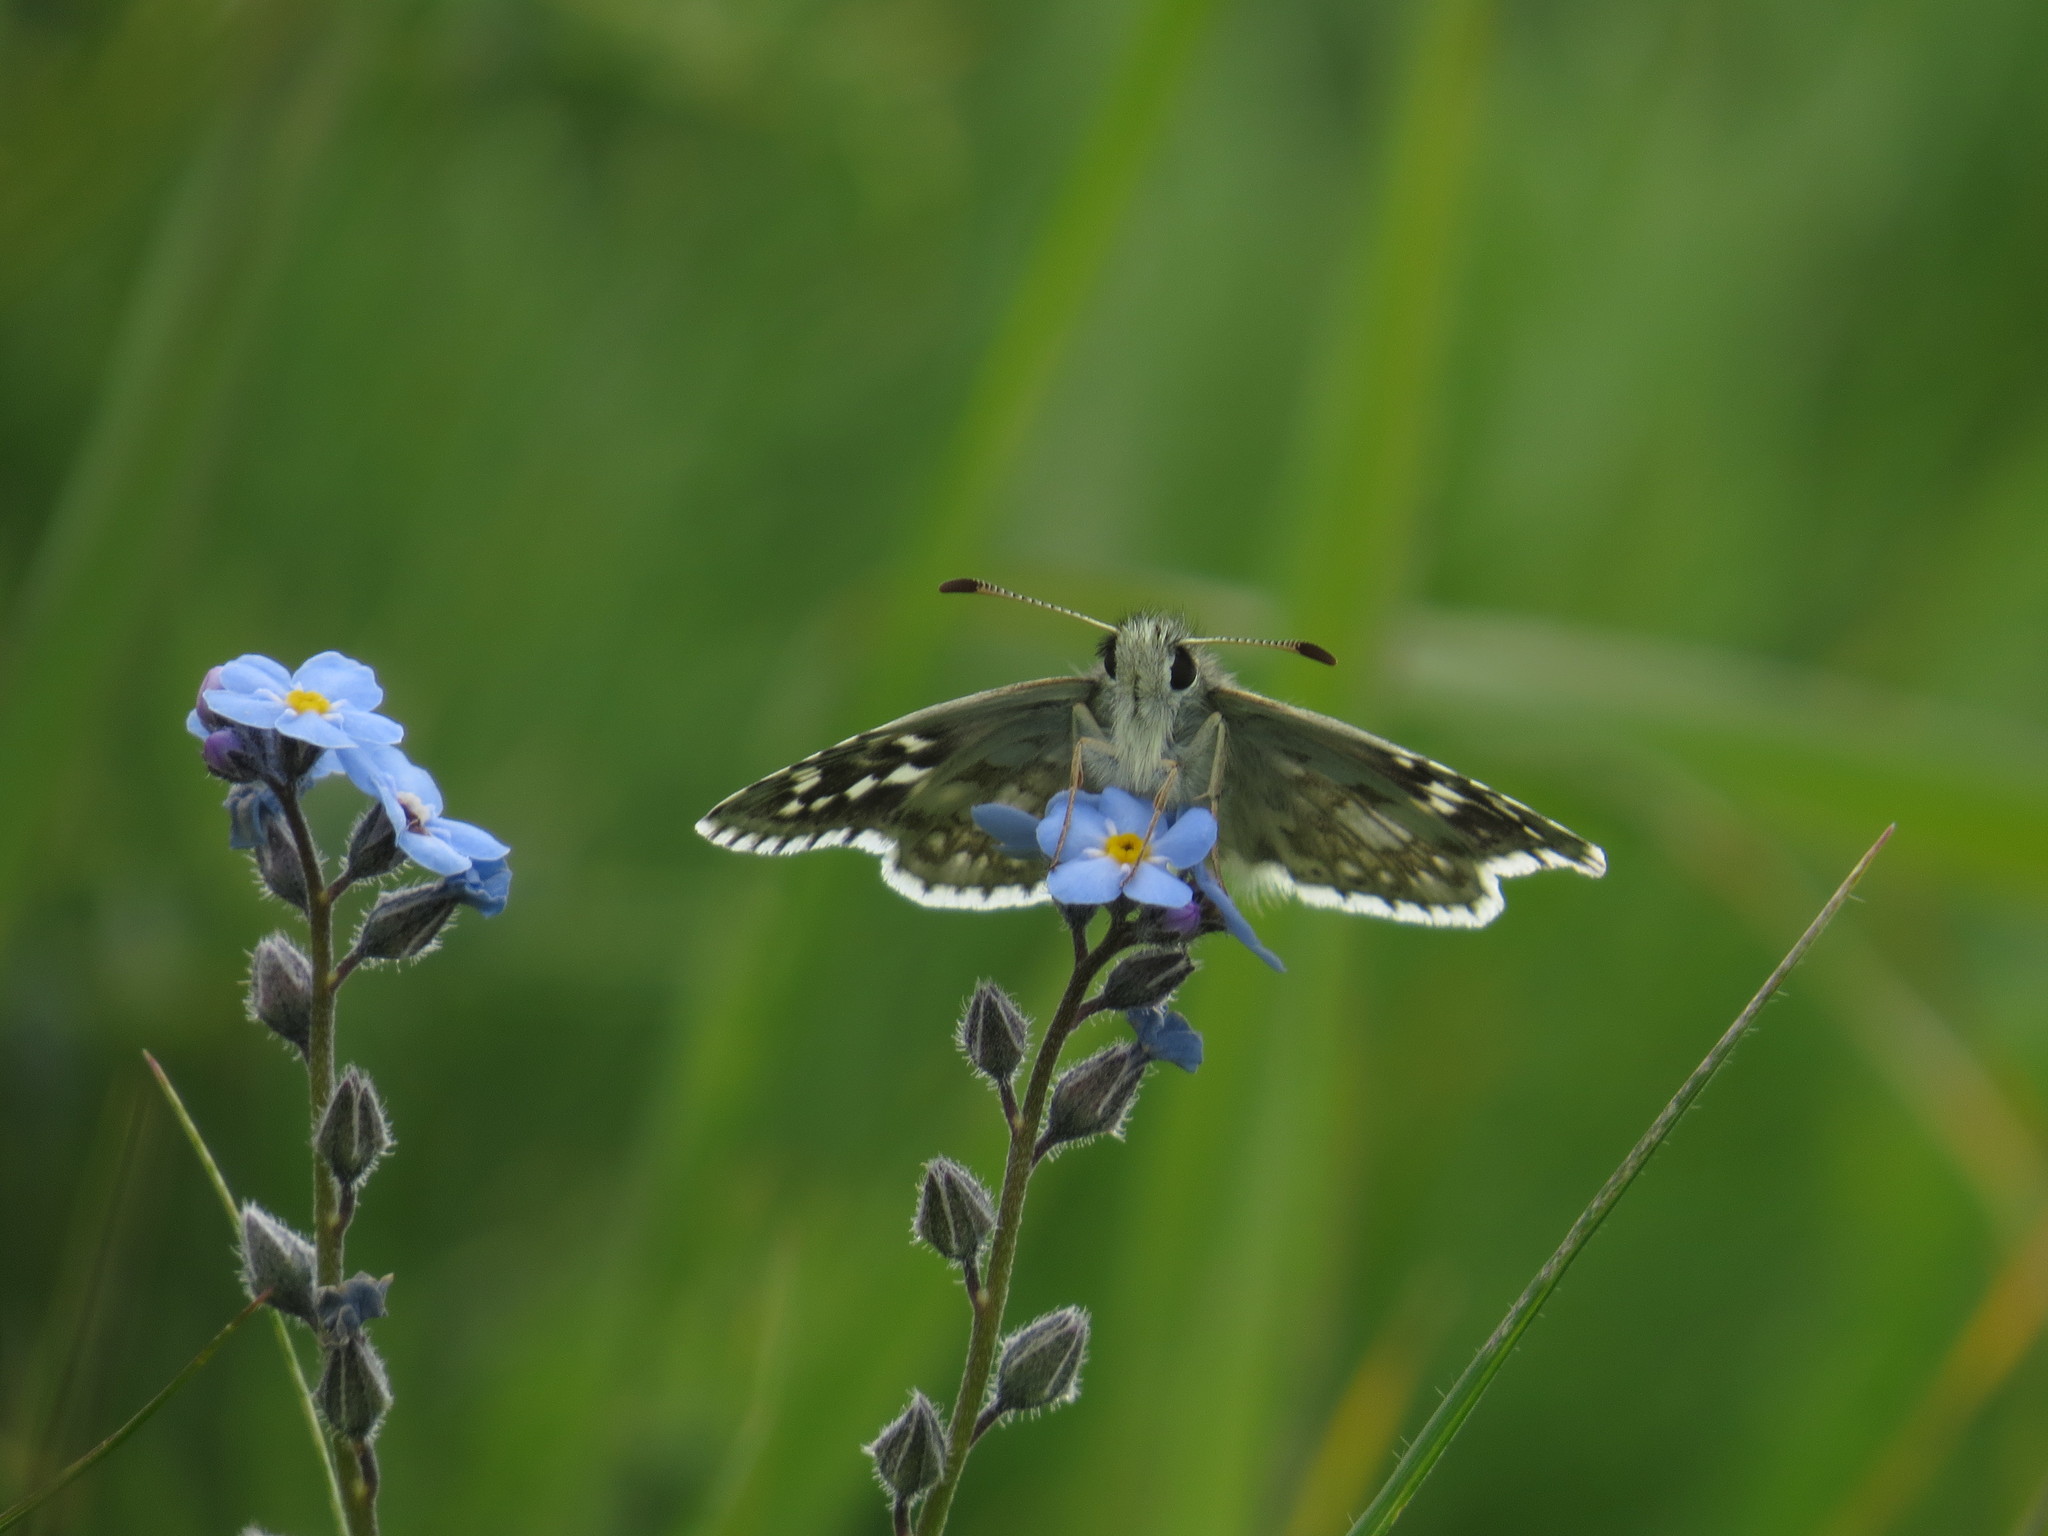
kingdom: Animalia
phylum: Arthropoda
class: Insecta
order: Lepidoptera
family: Hesperiidae
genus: Pyrgus
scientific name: Pyrgus fritillarius
